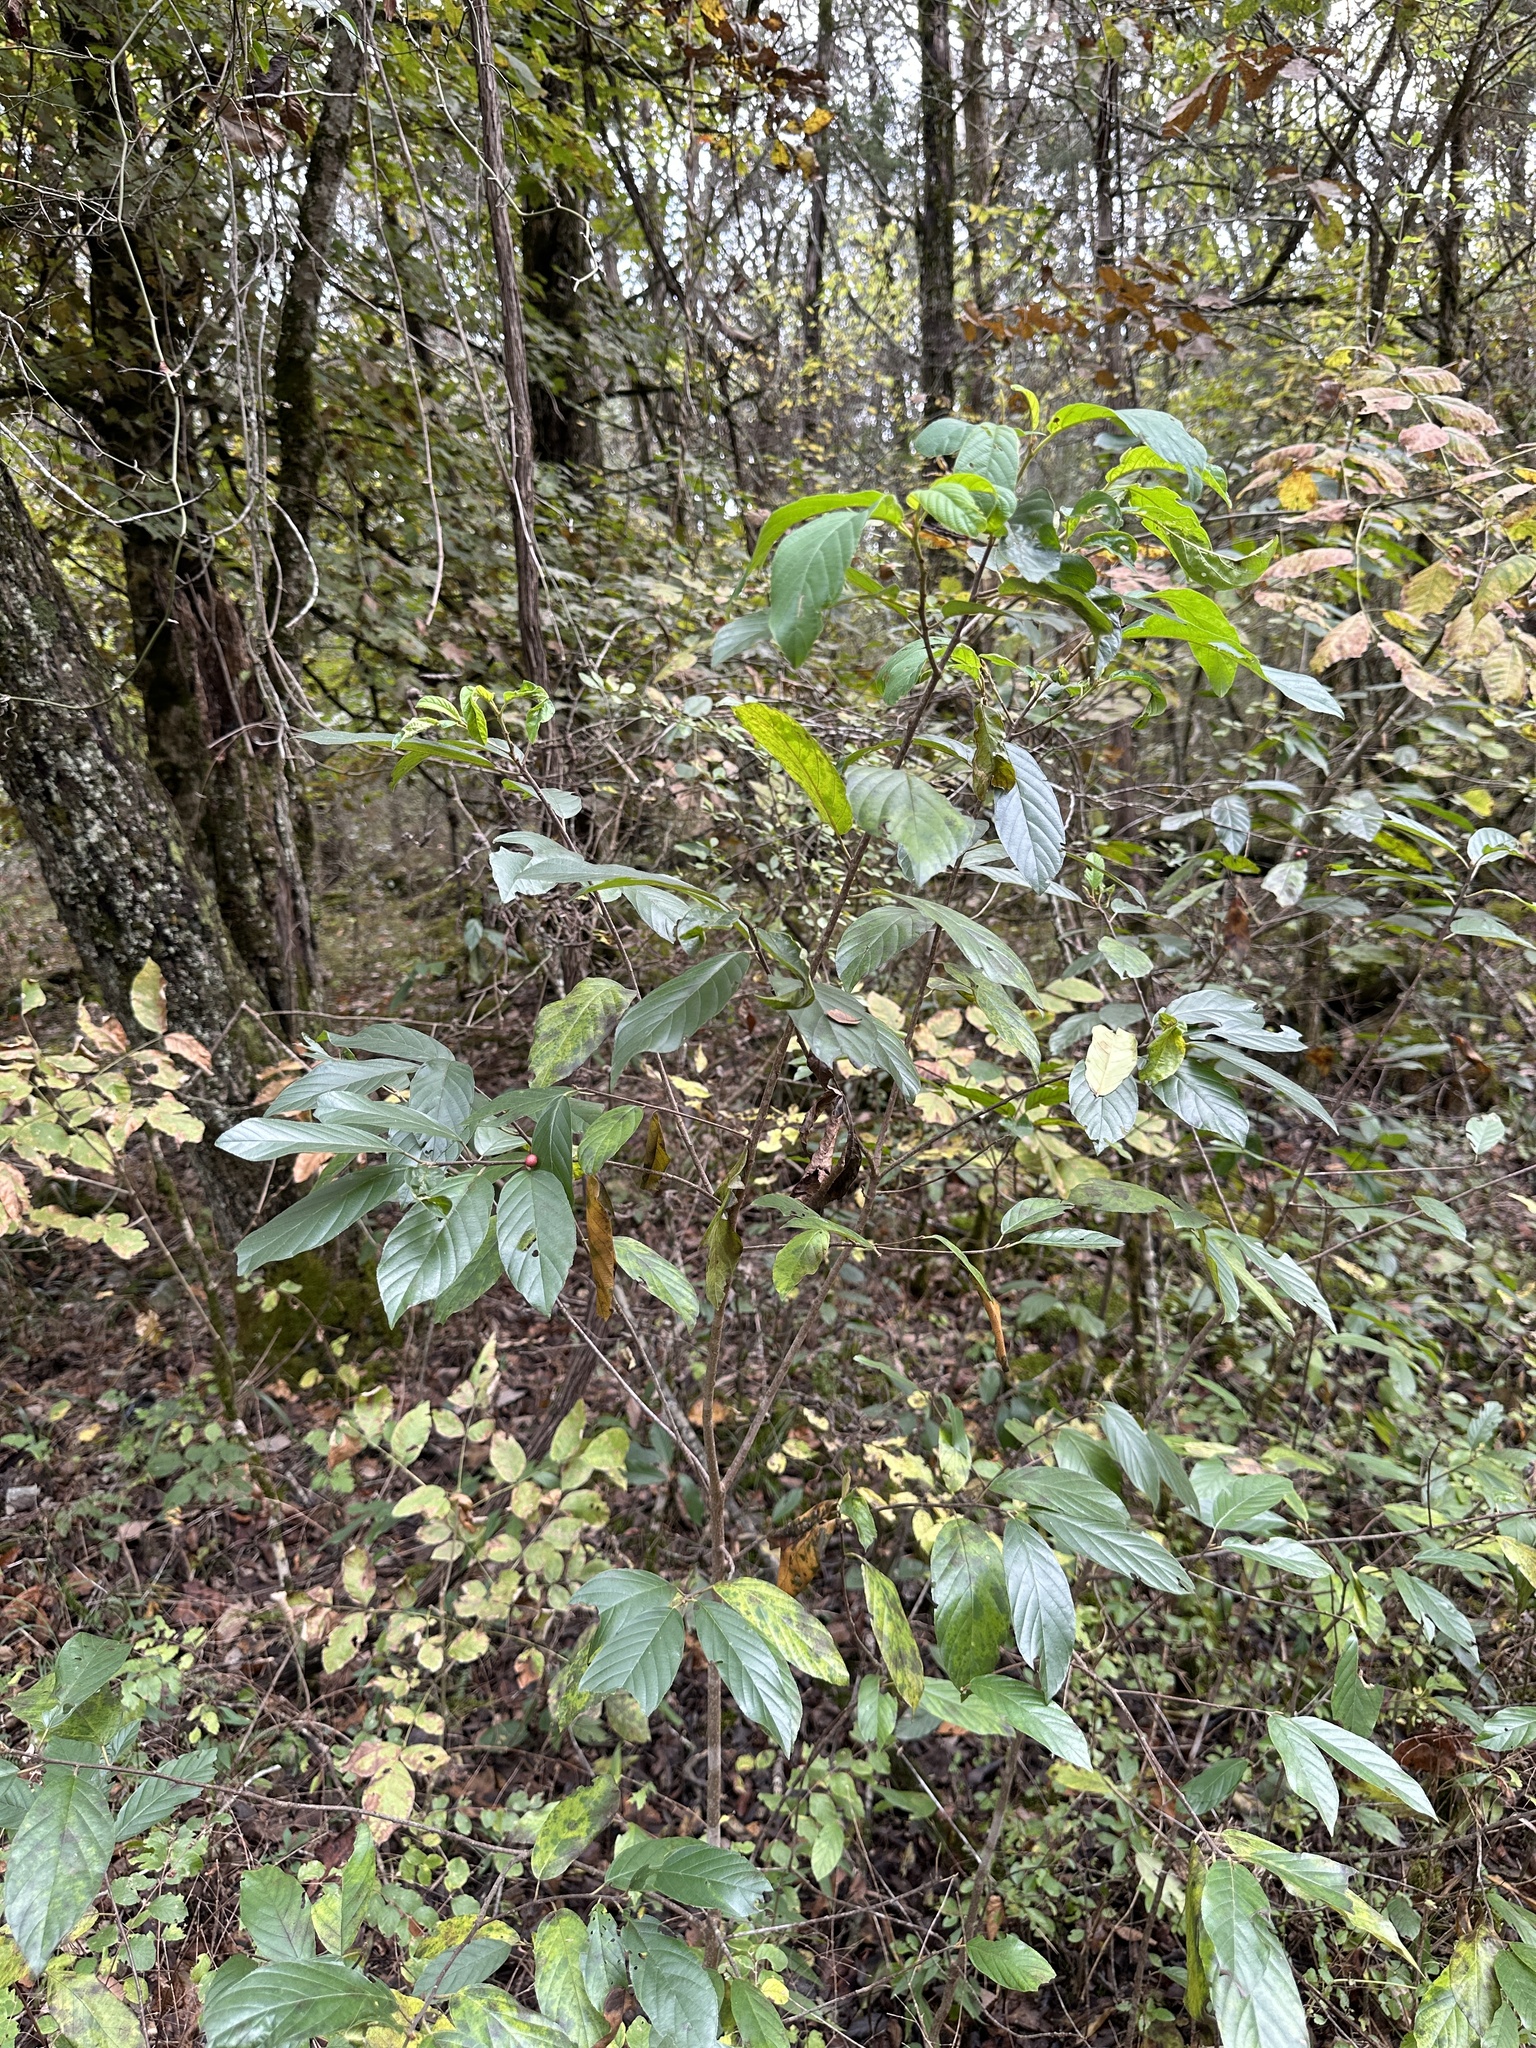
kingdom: Plantae
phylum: Tracheophyta
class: Magnoliopsida
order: Rosales
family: Rhamnaceae
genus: Frangula
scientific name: Frangula caroliniana
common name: Carolina buckthorn
